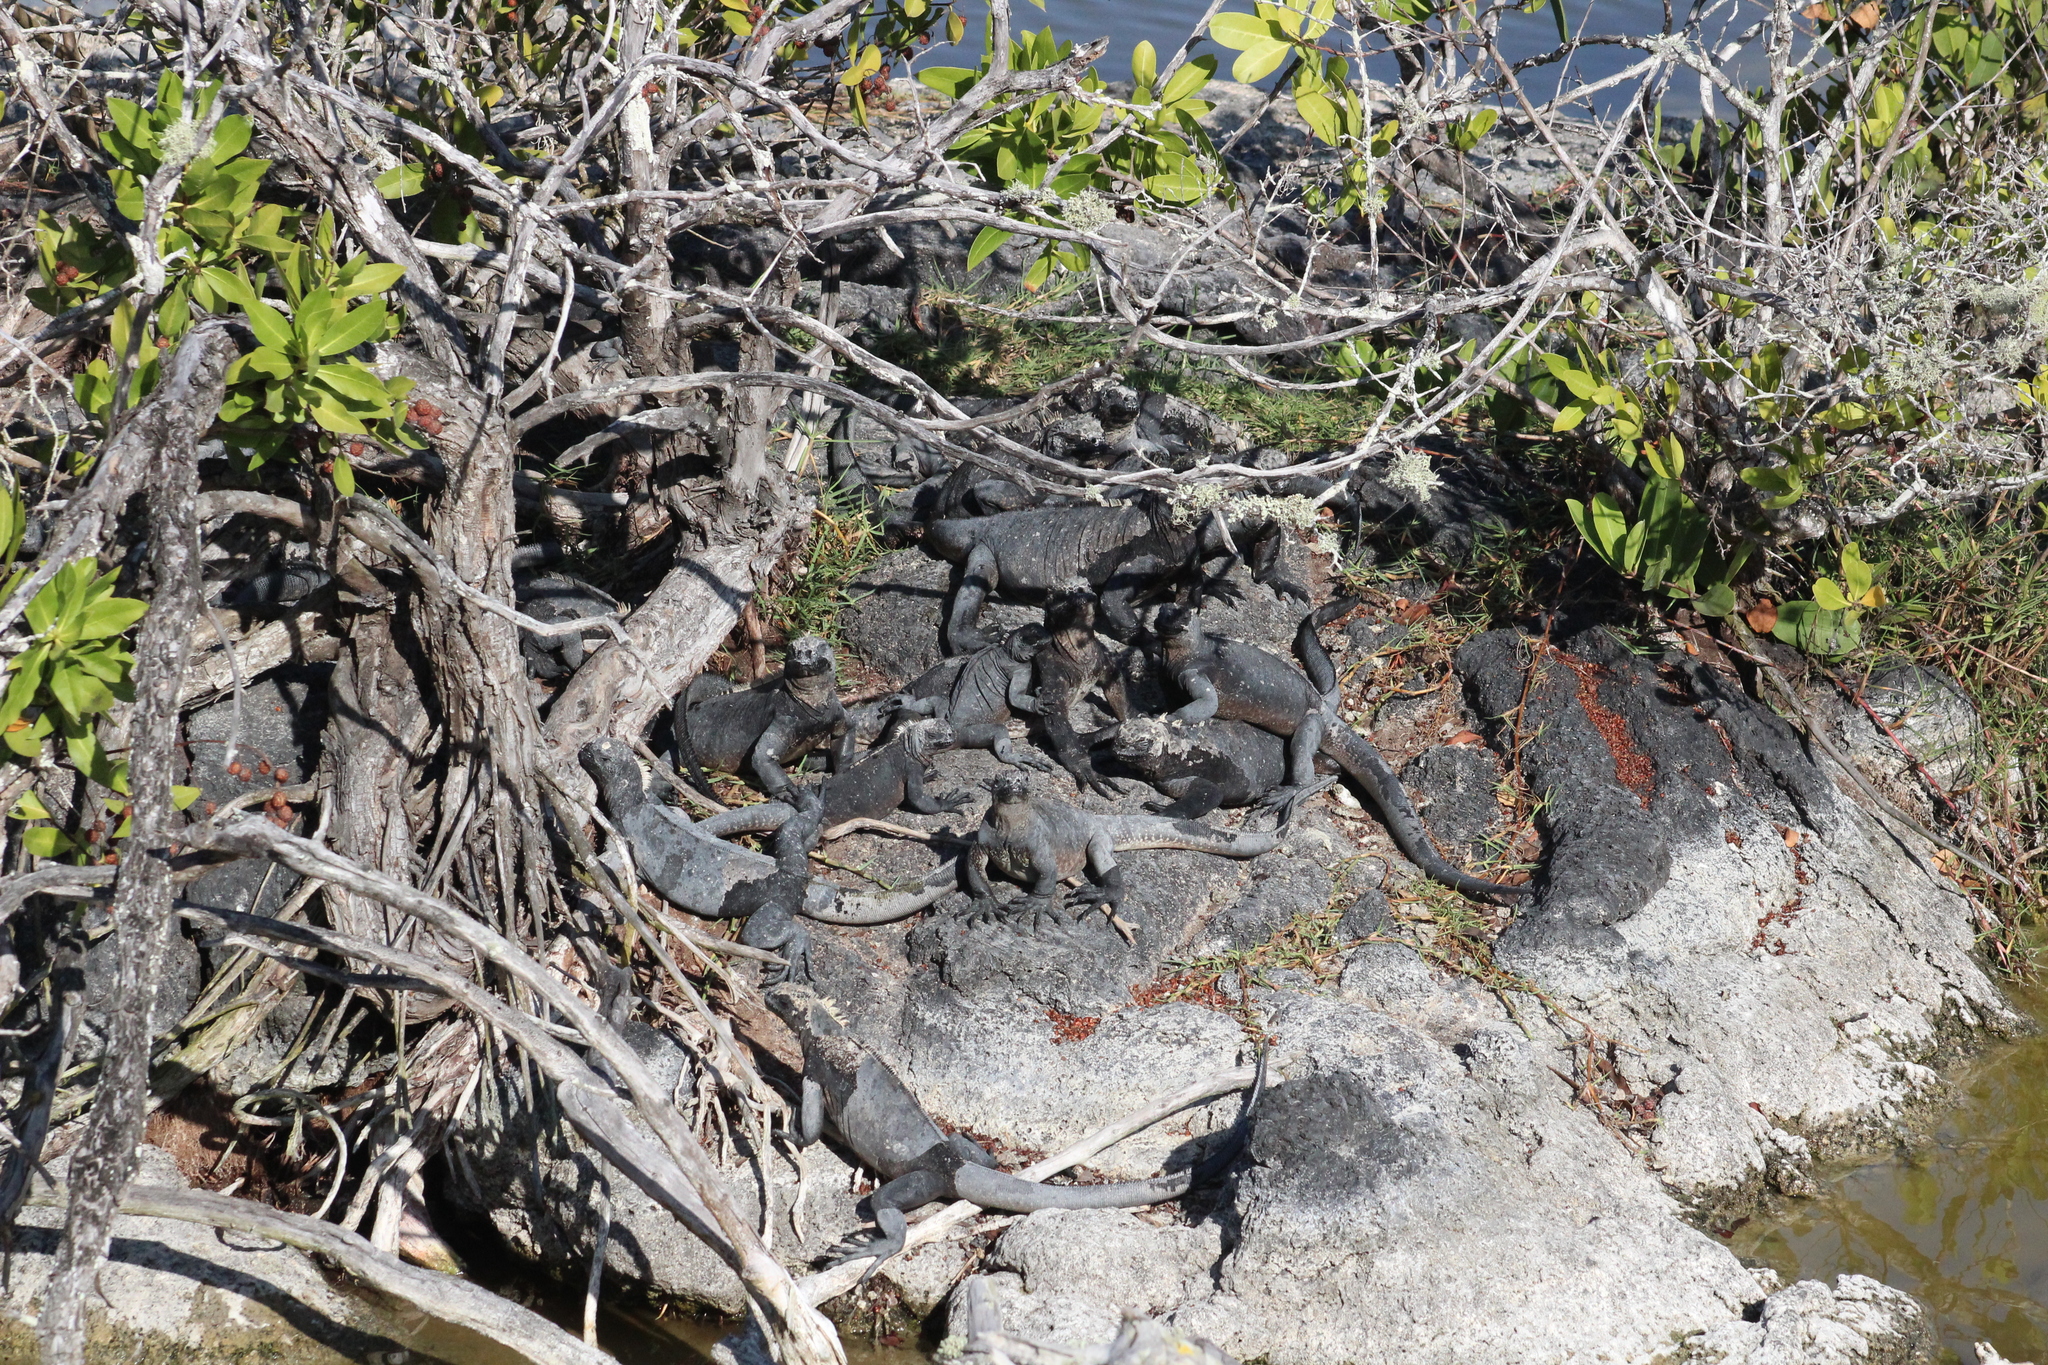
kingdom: Animalia
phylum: Chordata
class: Squamata
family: Iguanidae
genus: Amblyrhynchus
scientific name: Amblyrhynchus cristatus
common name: Marine iguana
